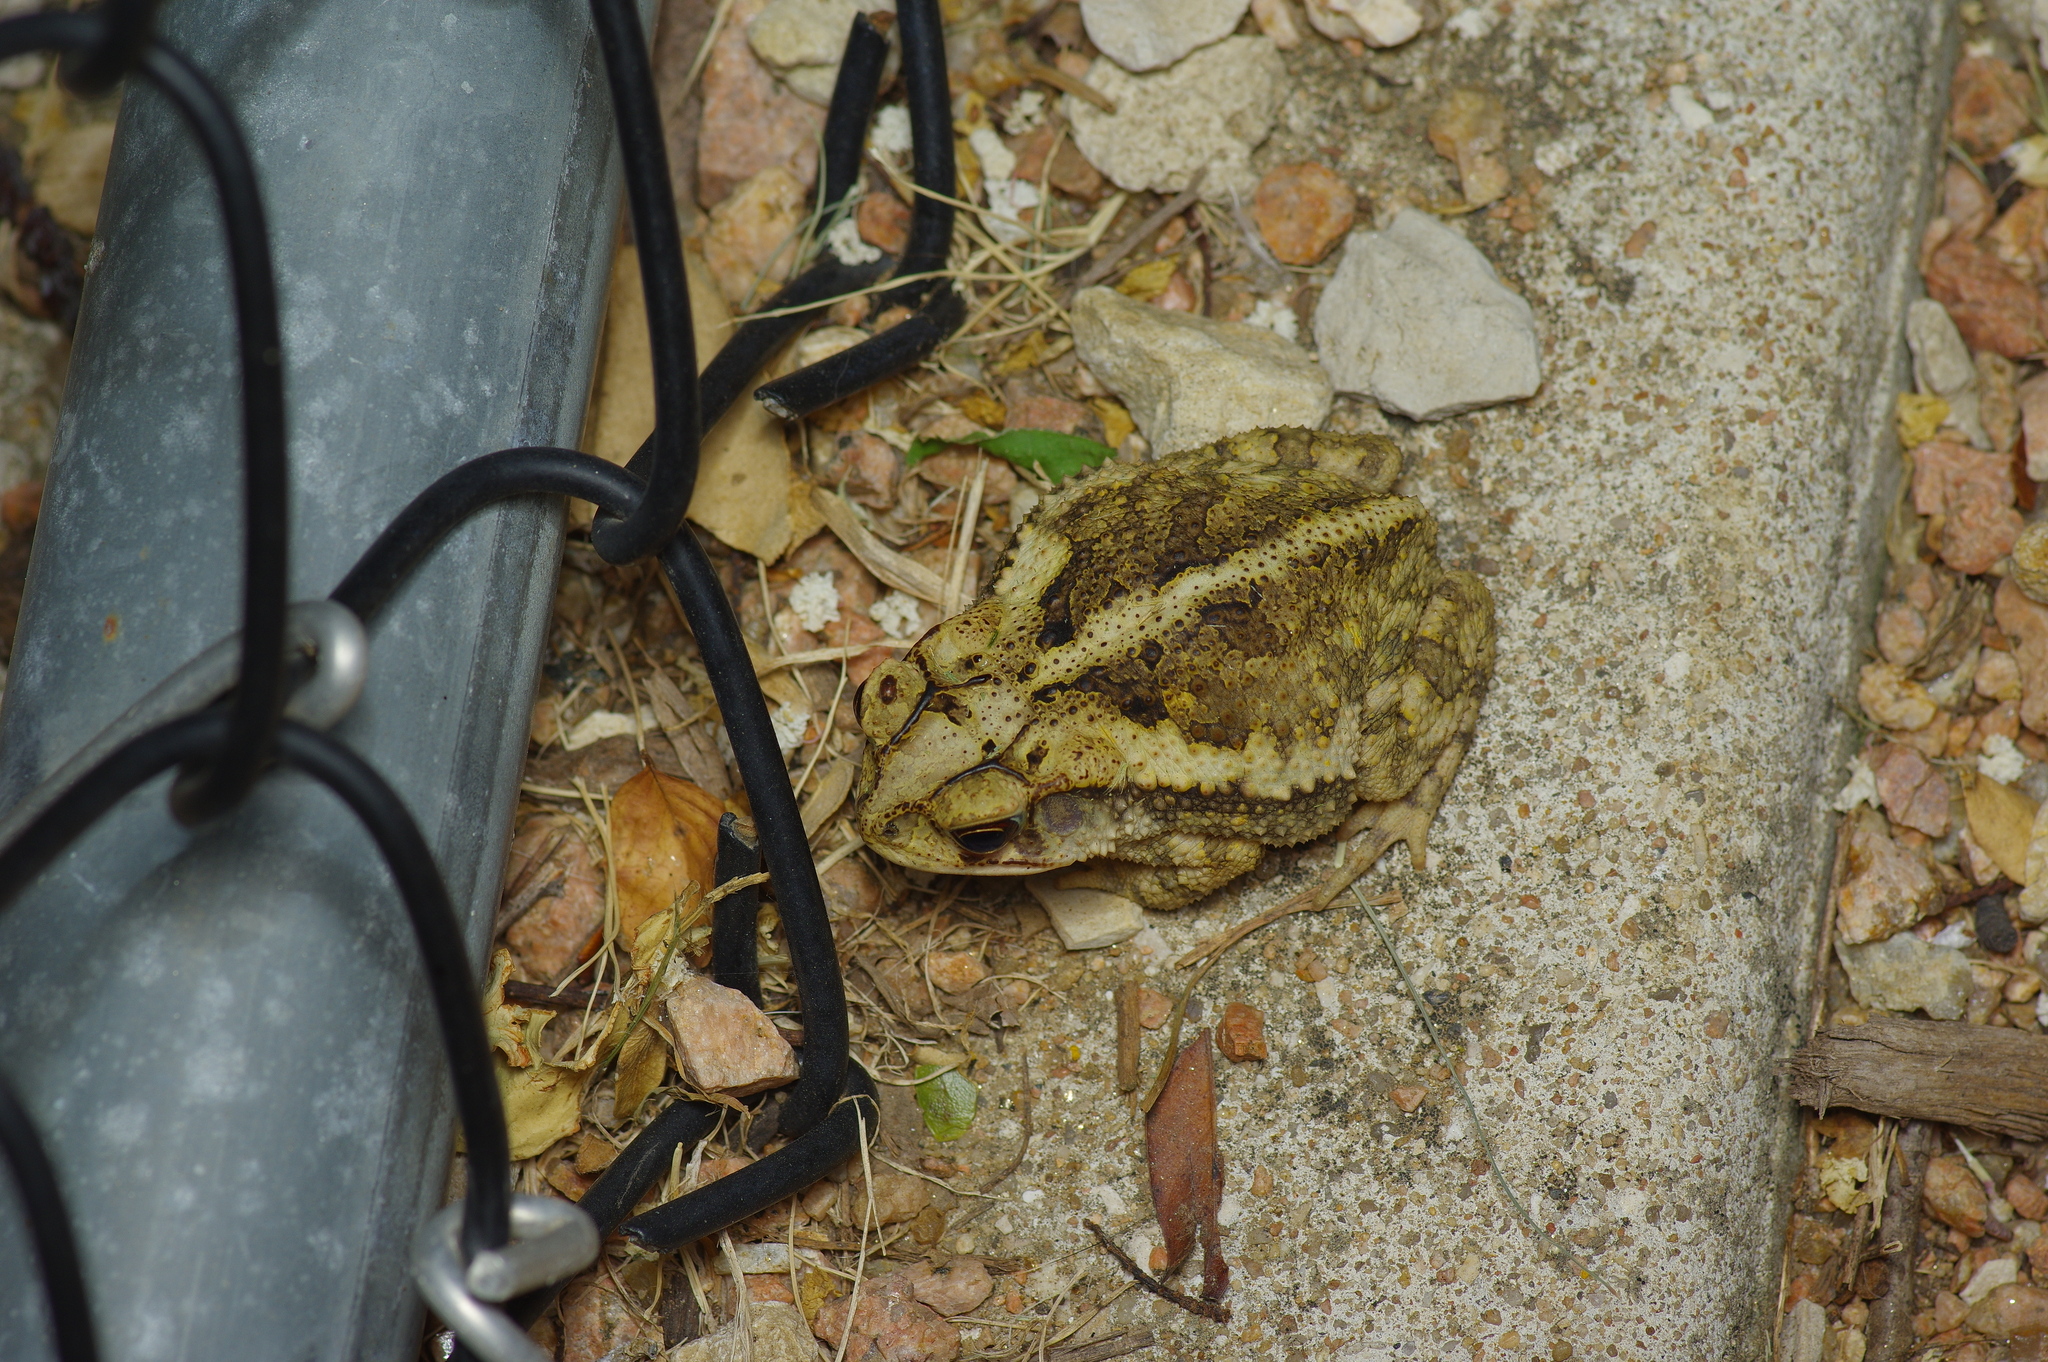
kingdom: Animalia
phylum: Chordata
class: Amphibia
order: Anura
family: Bufonidae
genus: Incilius
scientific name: Incilius nebulifer
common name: Gulf coast toad
